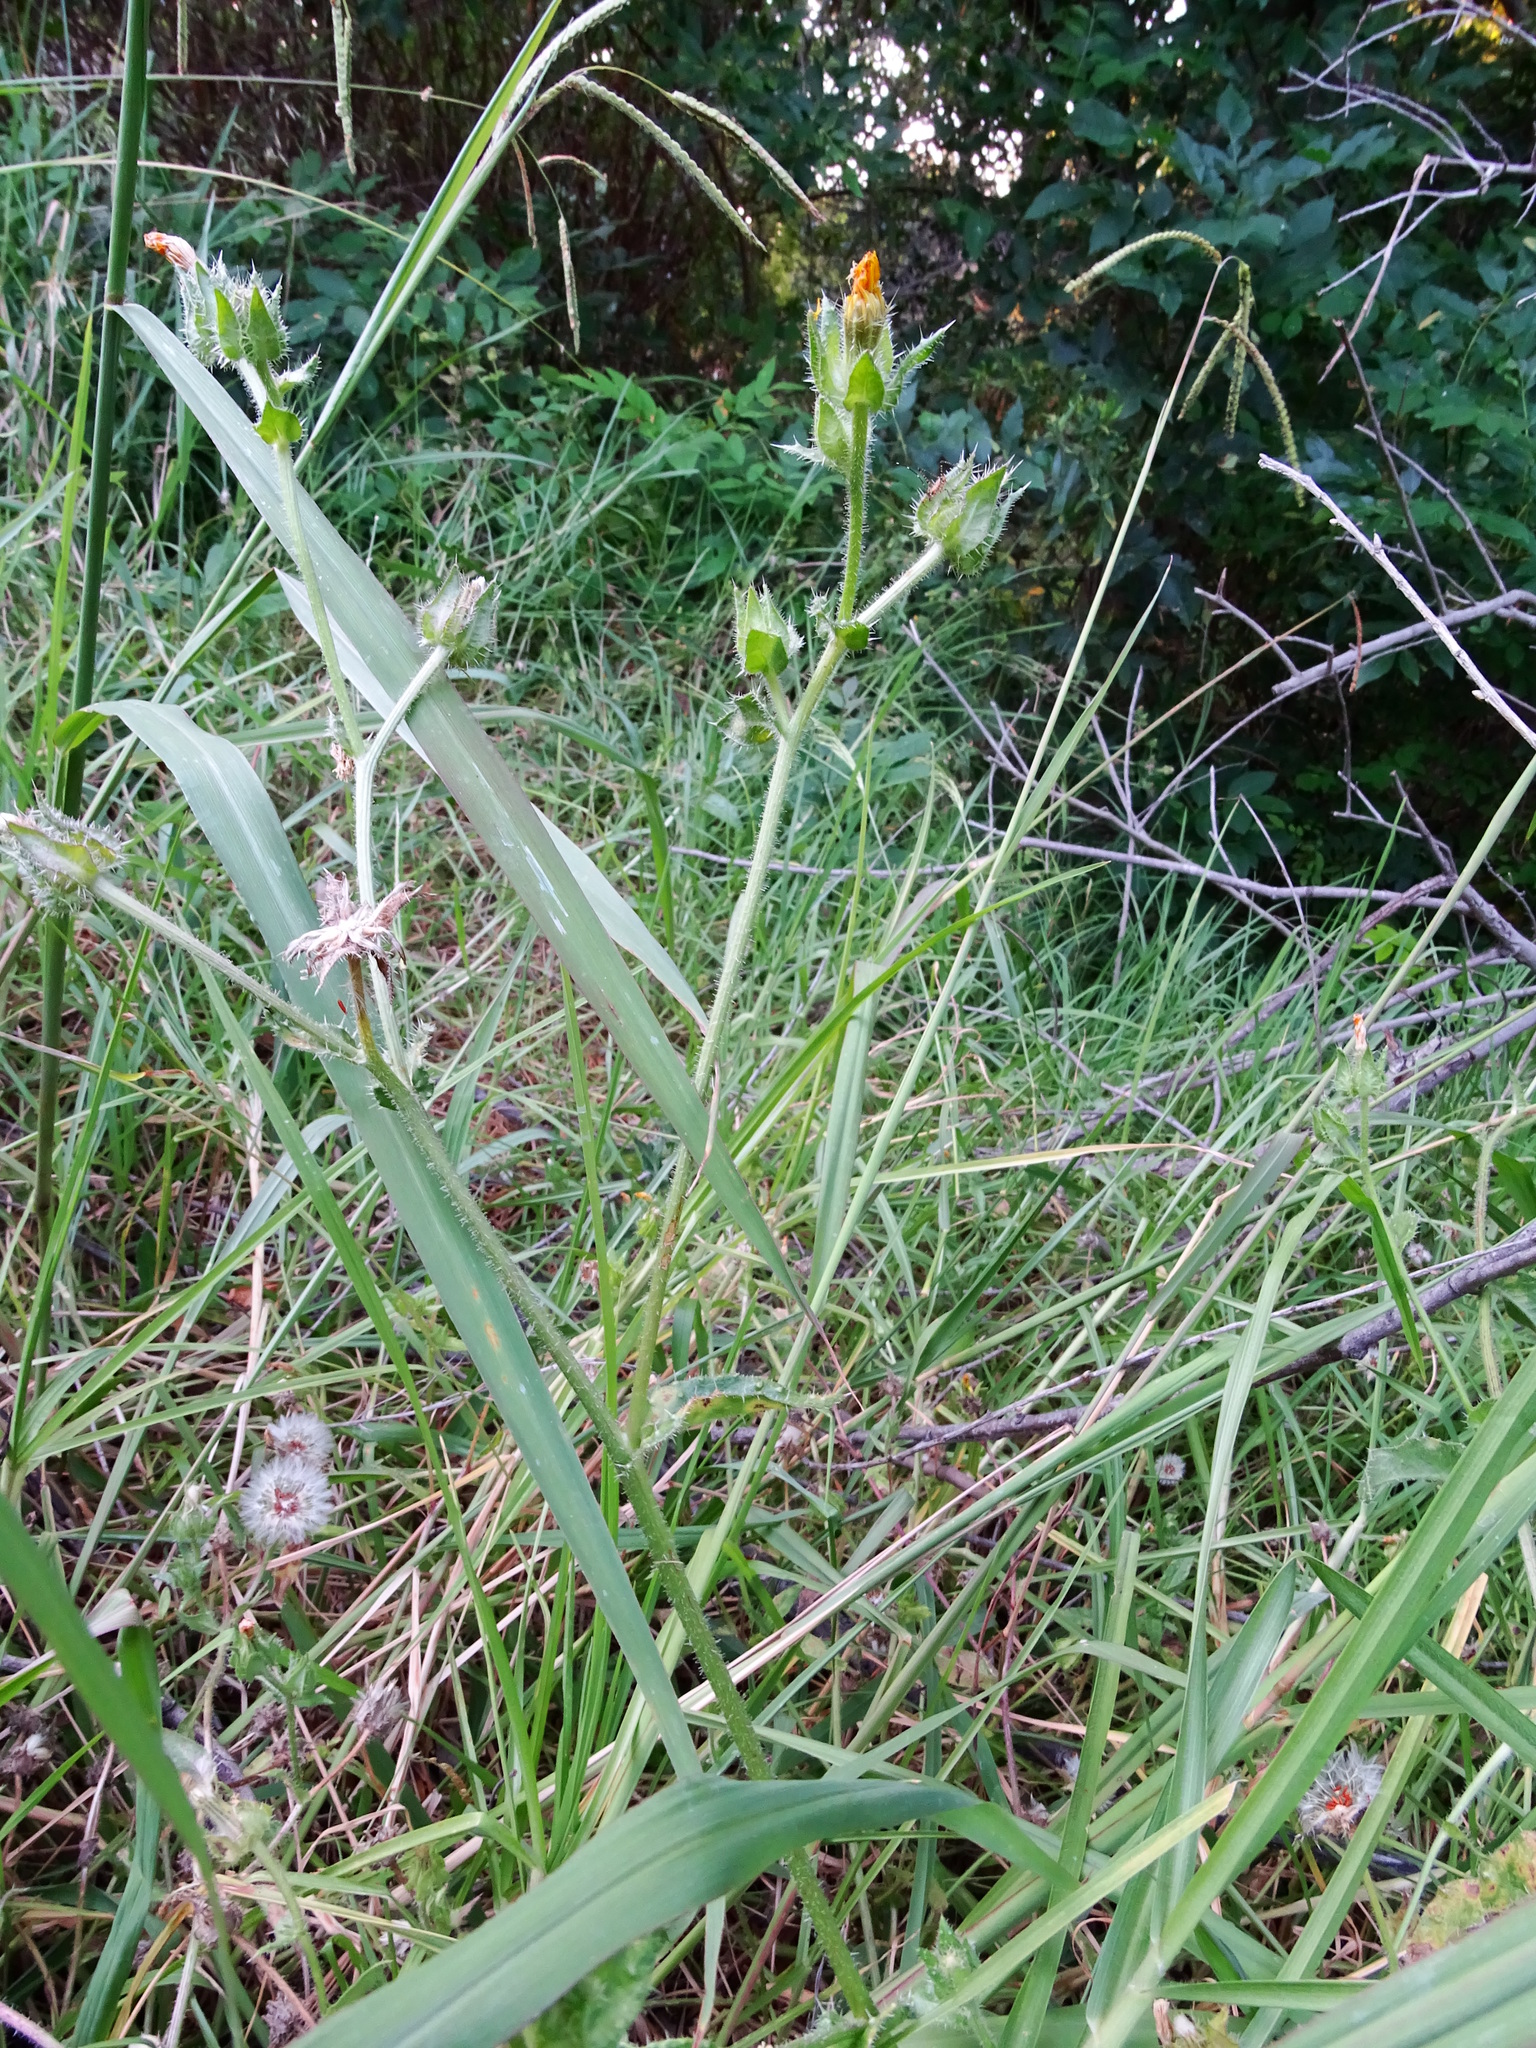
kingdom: Plantae
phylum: Tracheophyta
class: Magnoliopsida
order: Asterales
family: Asteraceae
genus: Helminthotheca
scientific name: Helminthotheca echioides
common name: Ox-tongue
